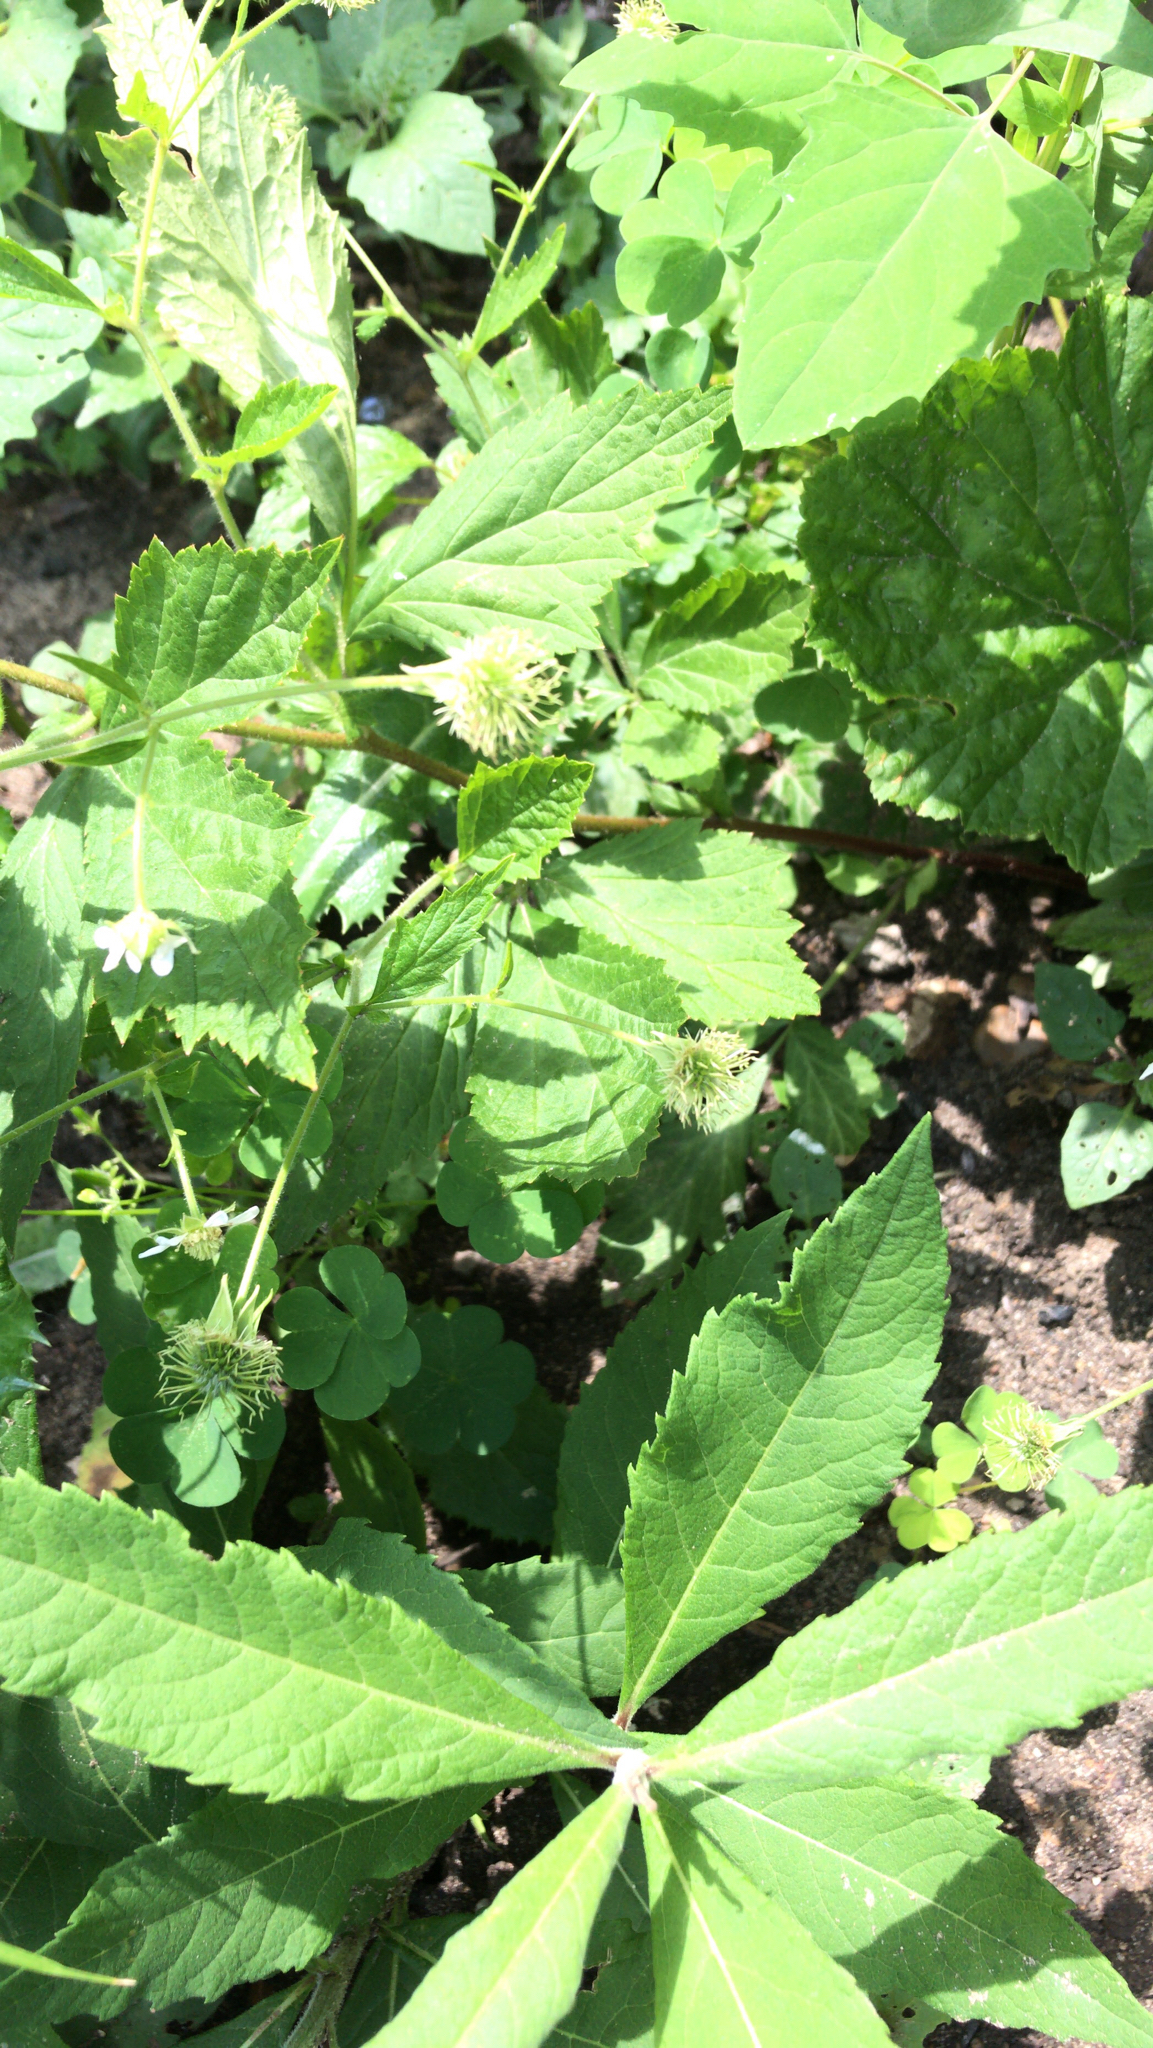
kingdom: Plantae
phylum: Tracheophyta
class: Magnoliopsida
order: Rosales
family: Rosaceae
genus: Geum
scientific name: Geum canadense
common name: White avens
